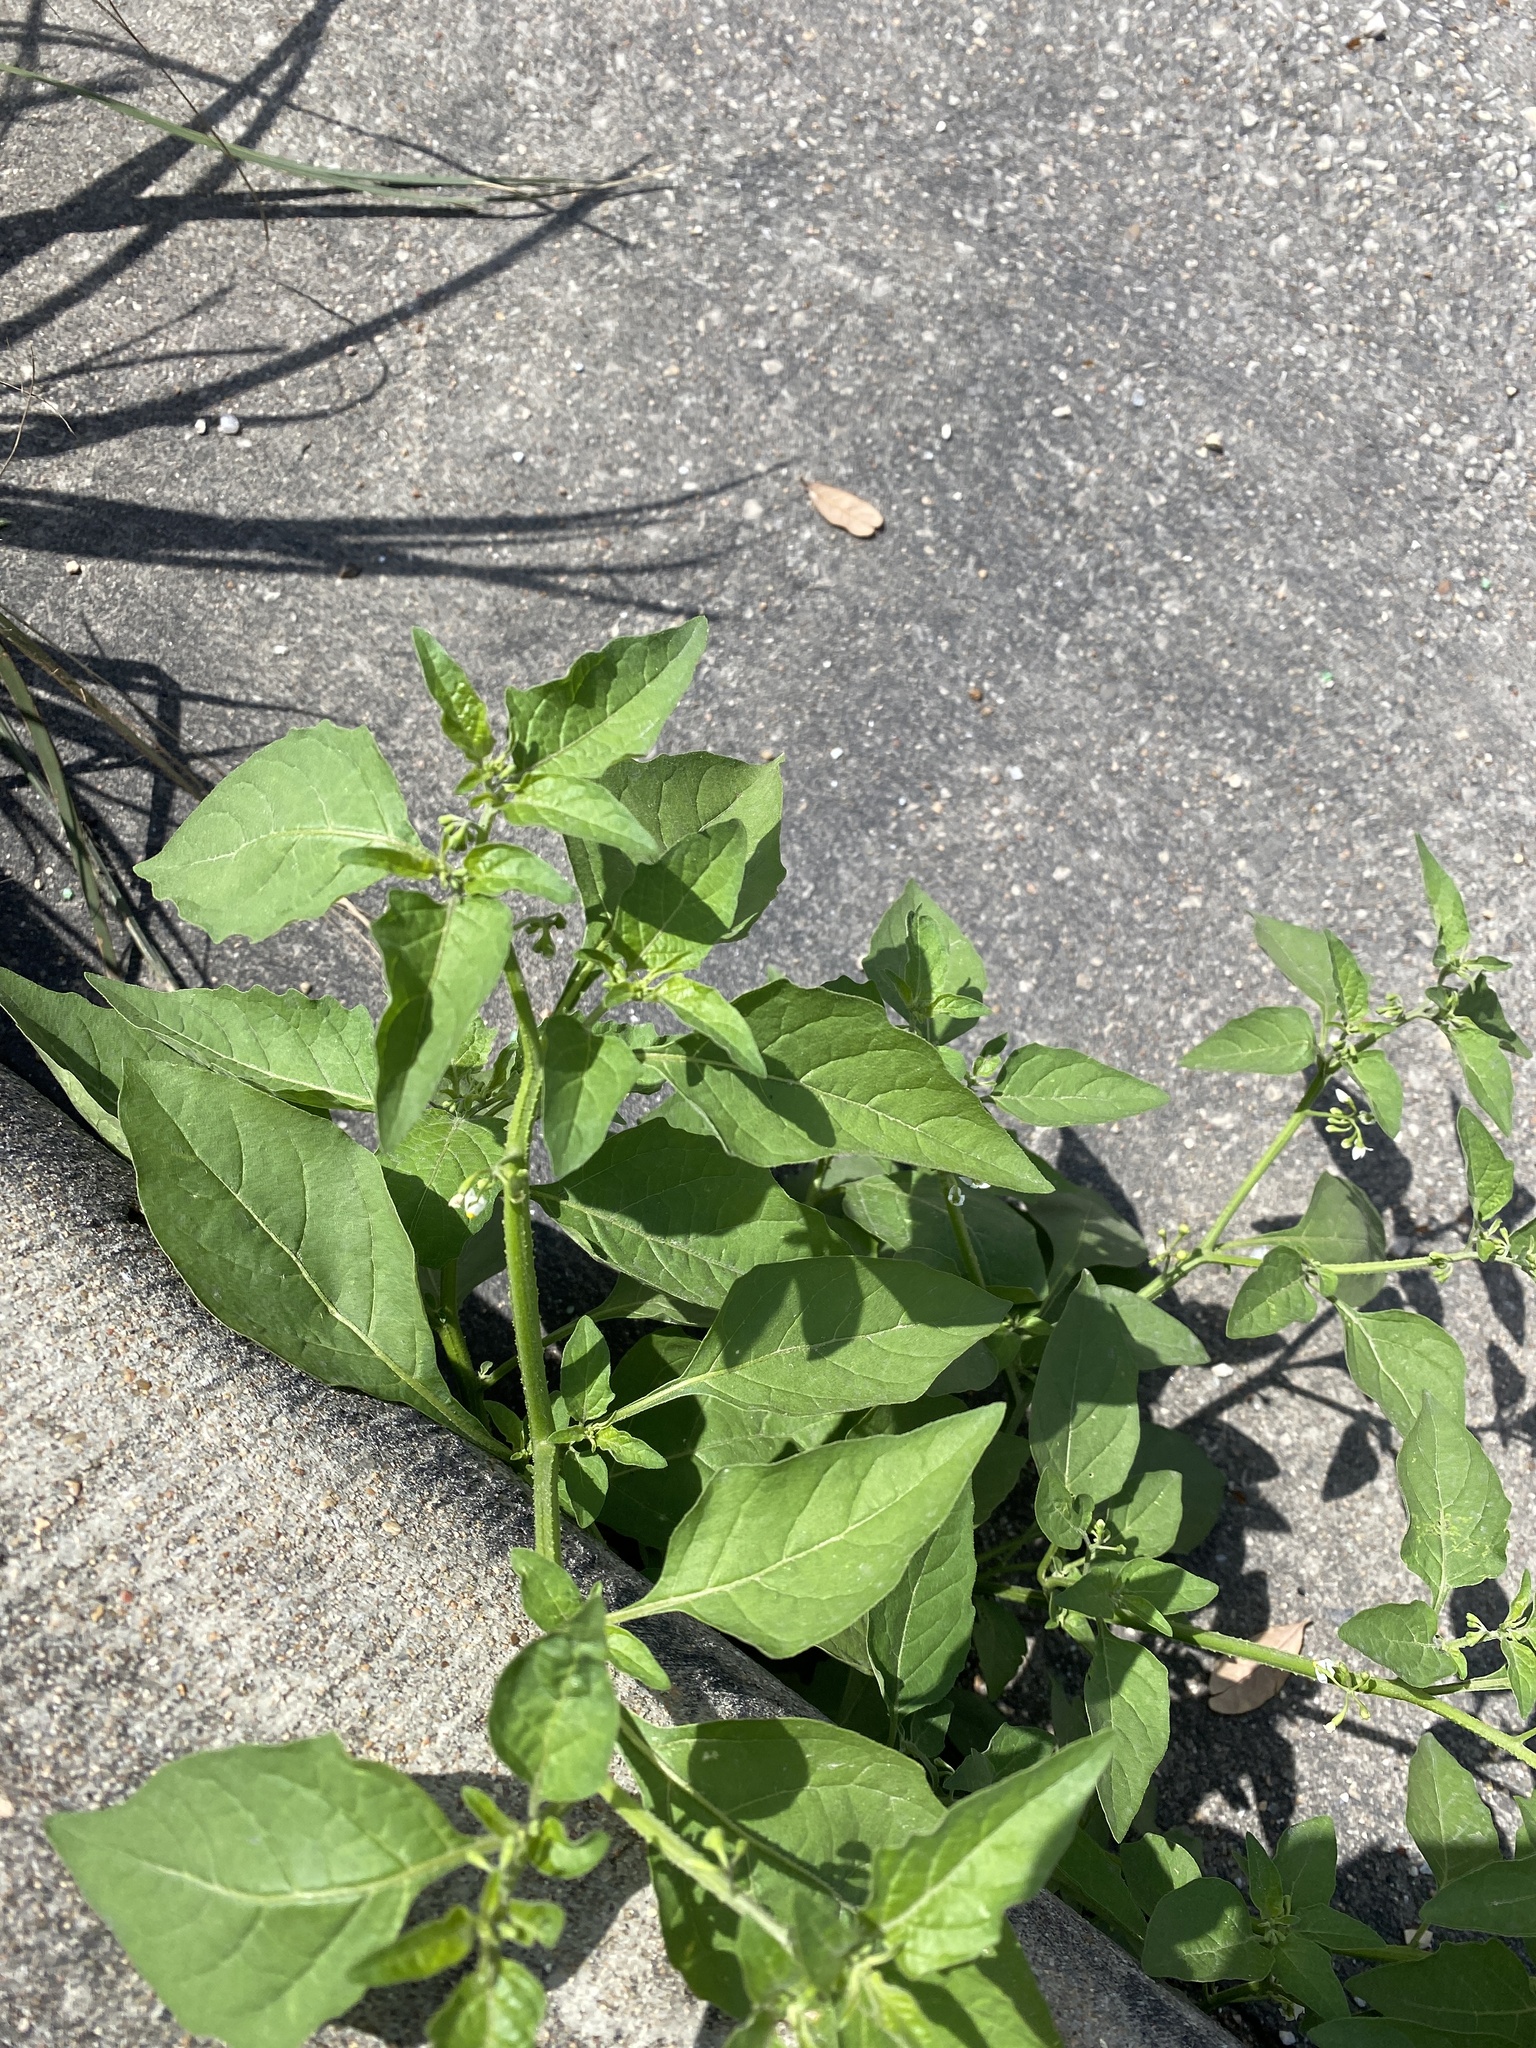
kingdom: Plantae
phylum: Tracheophyta
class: Magnoliopsida
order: Solanales
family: Solanaceae
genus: Solanum
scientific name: Solanum americanum
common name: American black nightshade
